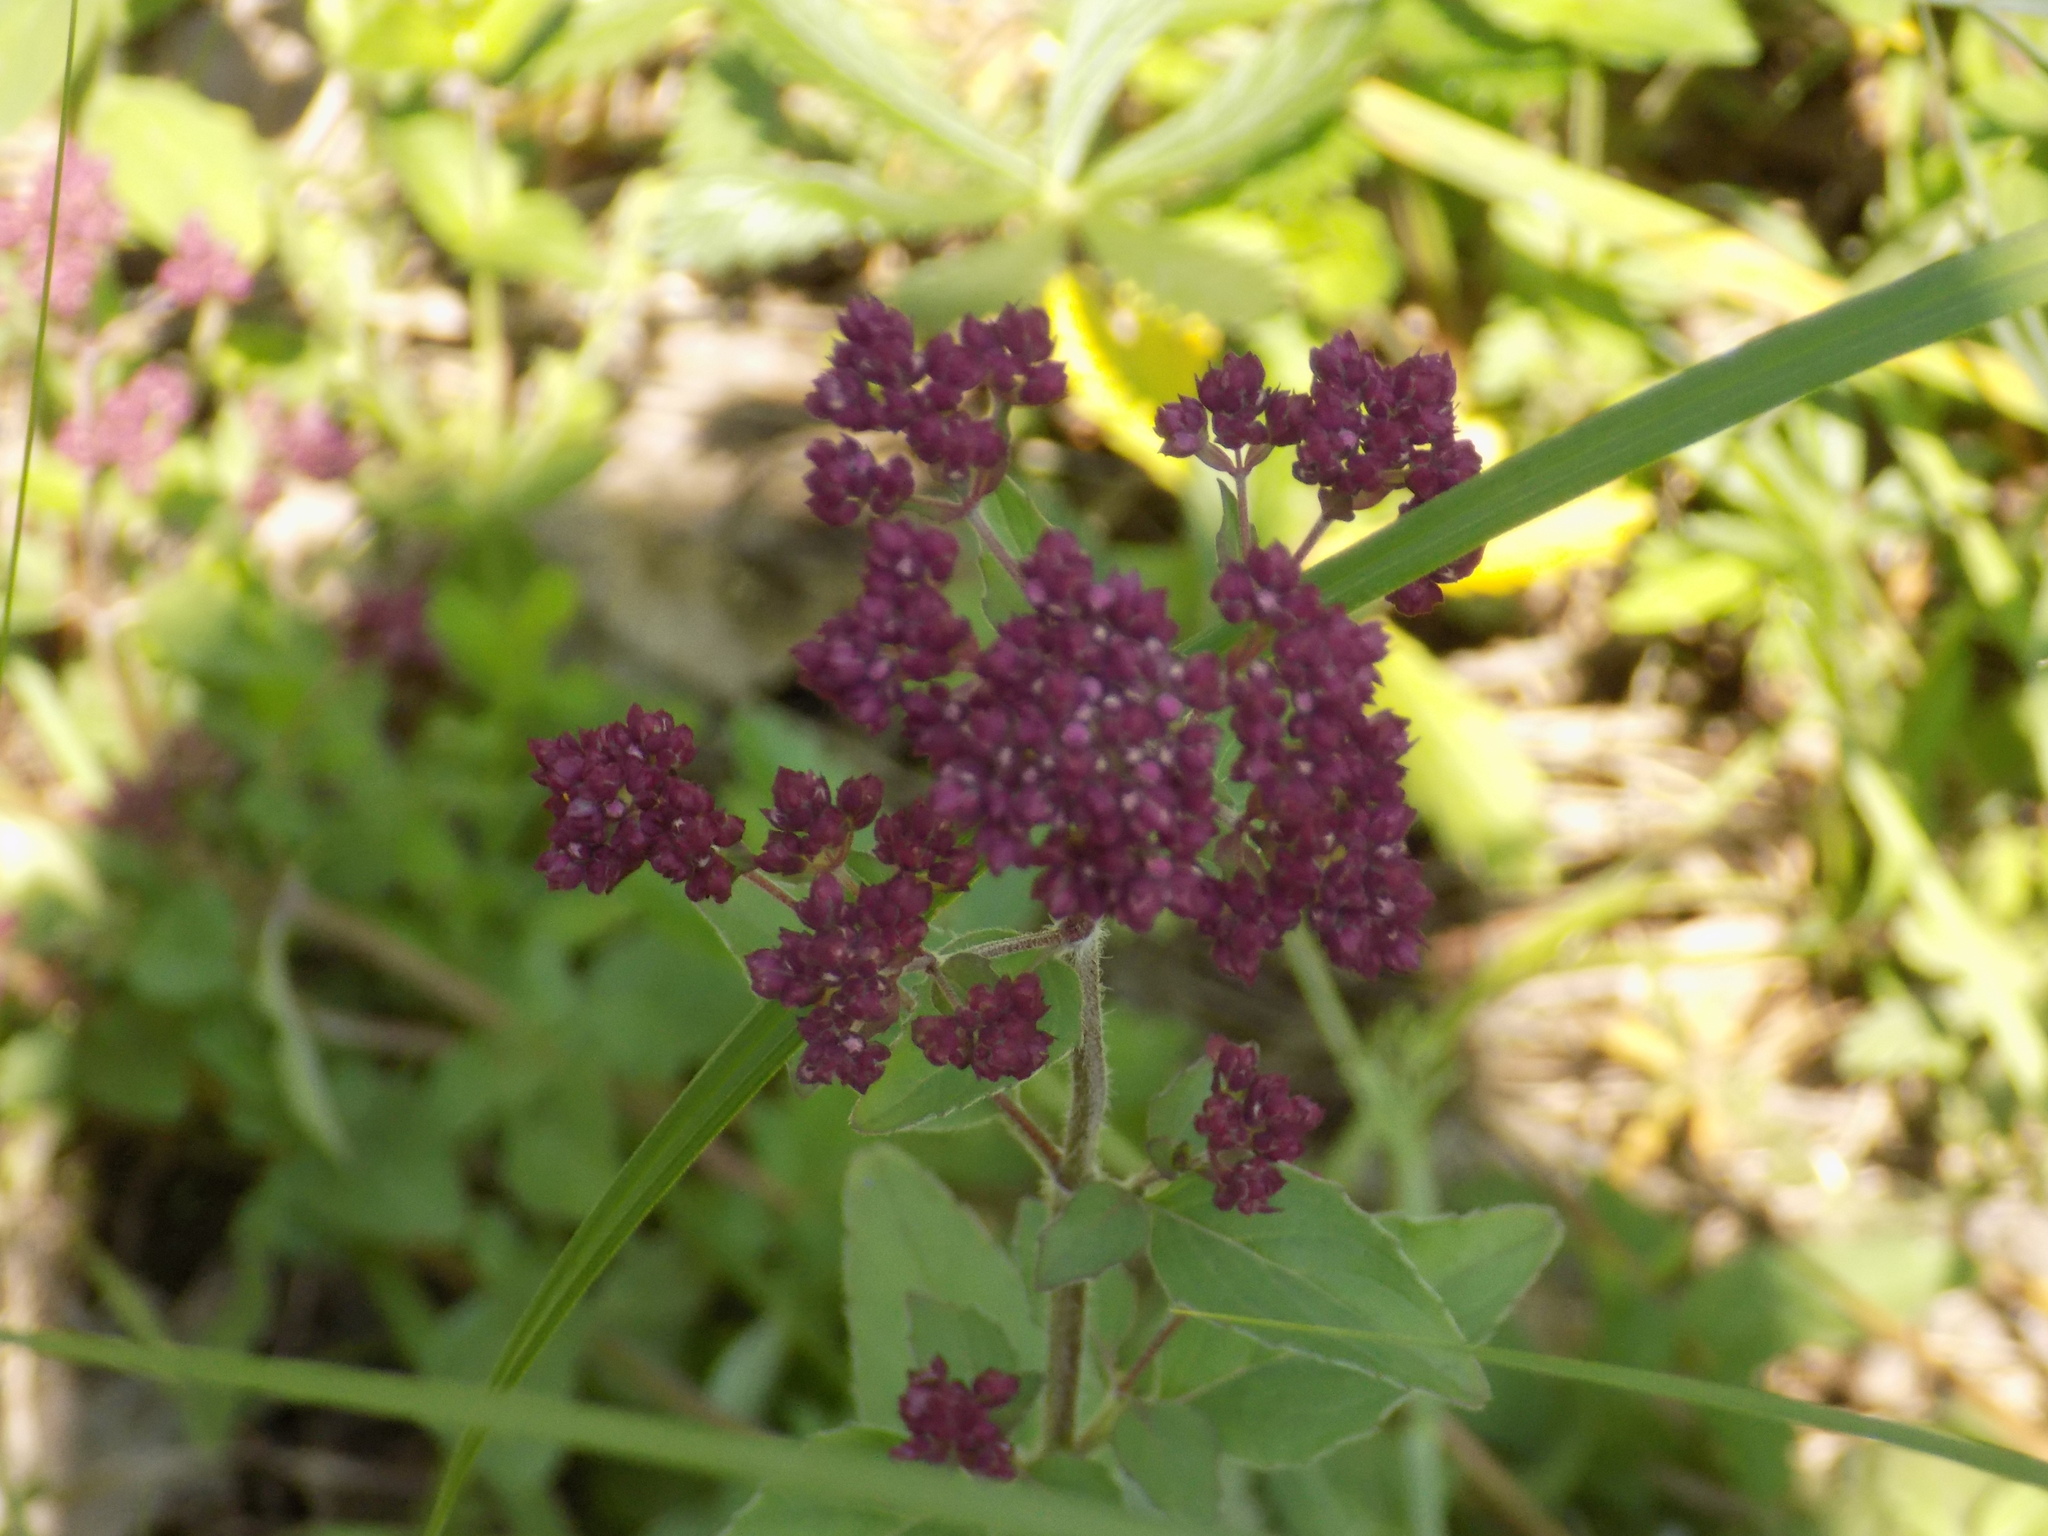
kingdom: Plantae
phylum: Tracheophyta
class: Magnoliopsida
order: Lamiales
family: Lamiaceae
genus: Origanum
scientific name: Origanum vulgare
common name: Wild marjoram
